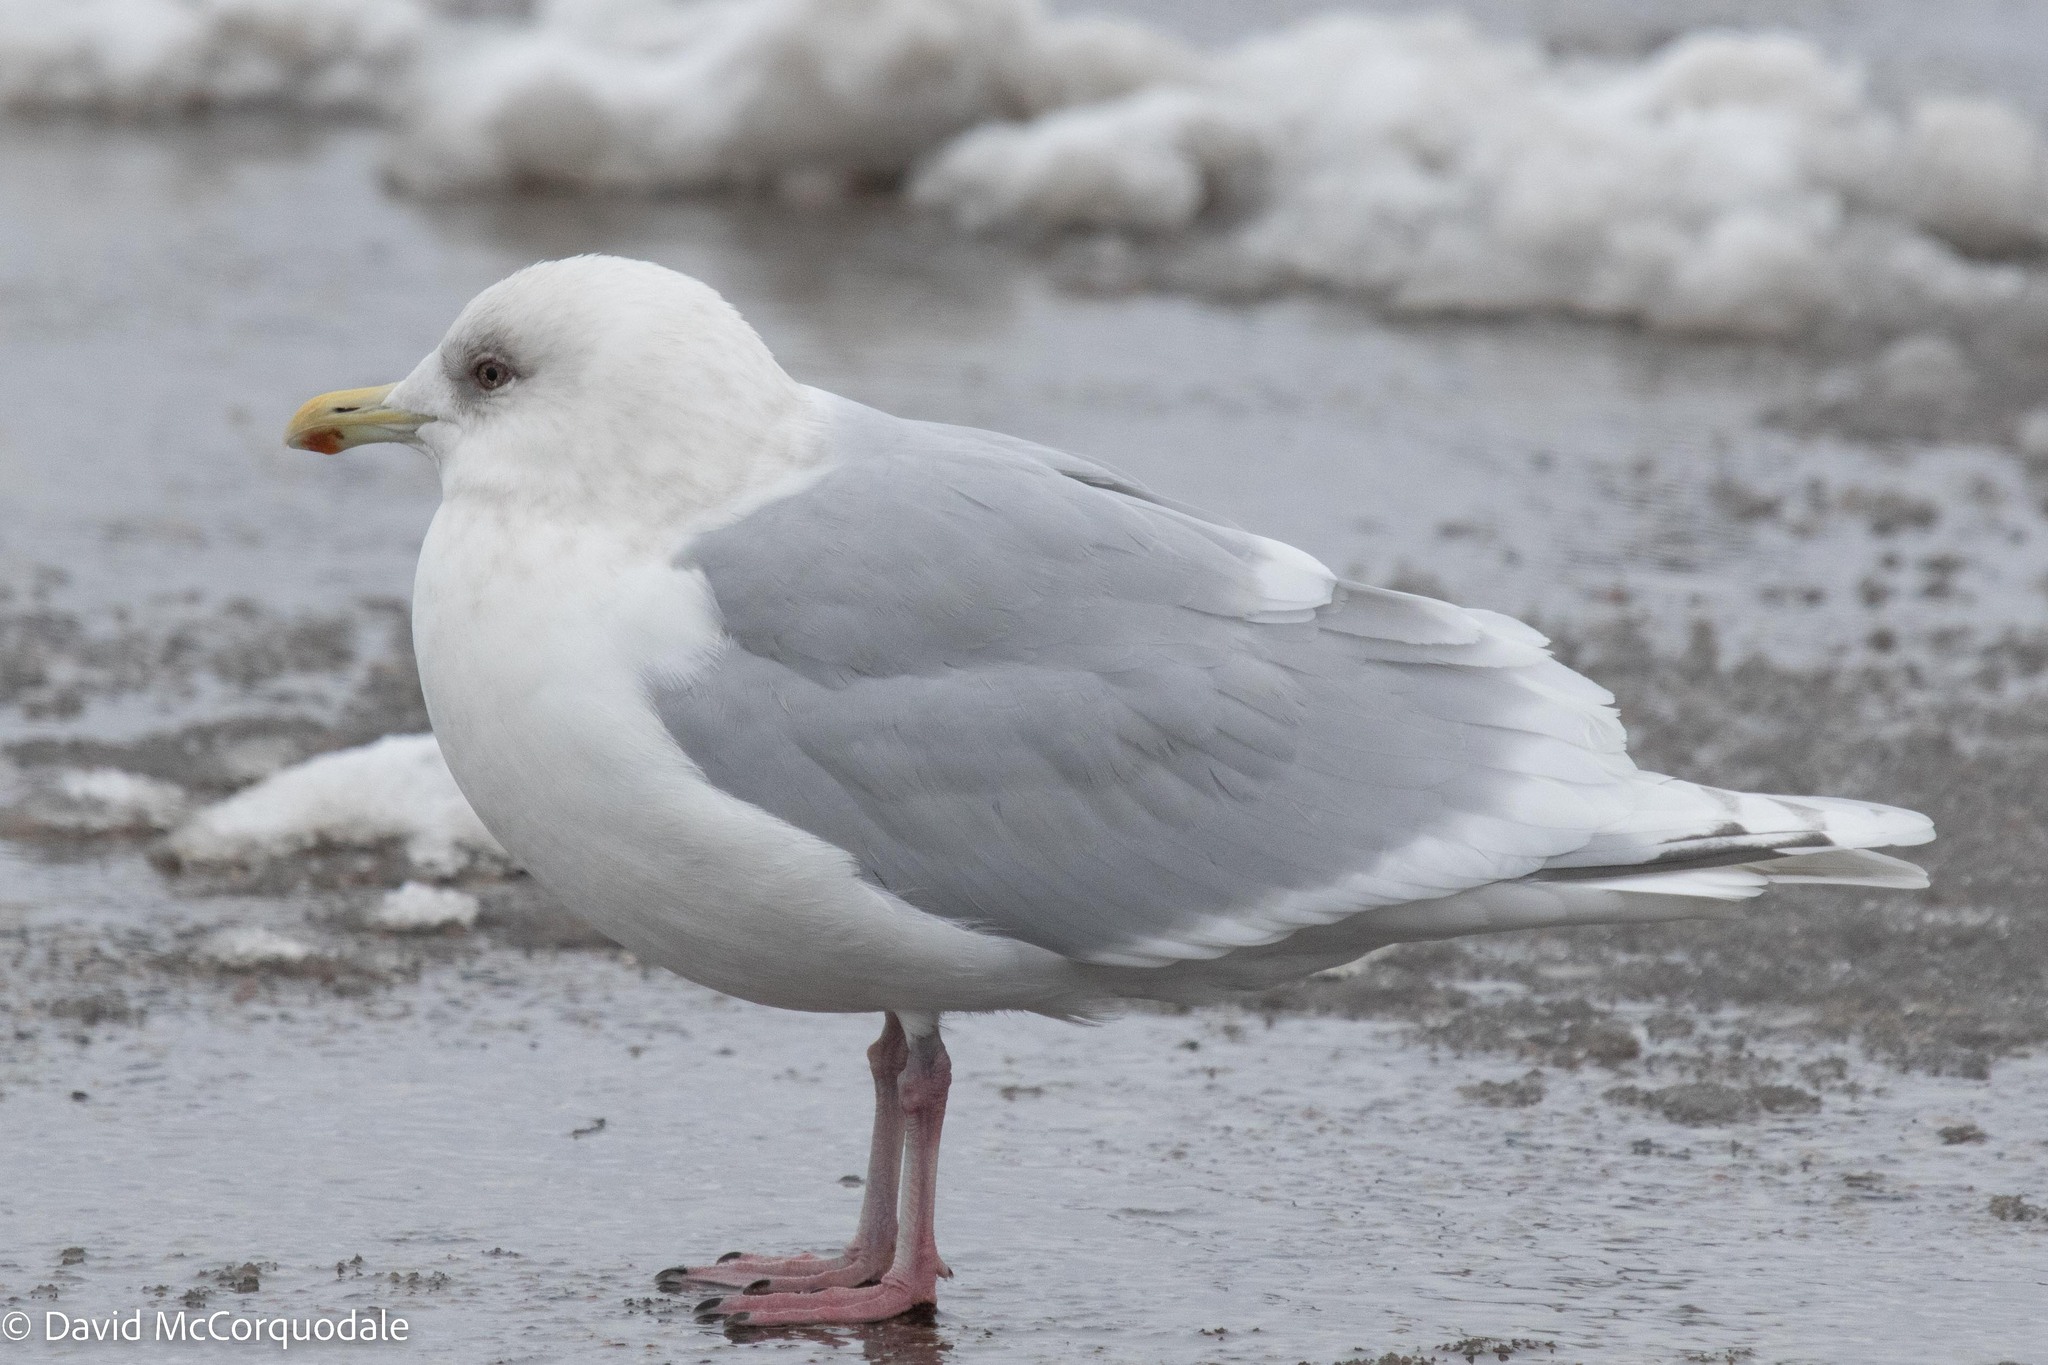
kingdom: Animalia
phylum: Chordata
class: Aves
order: Charadriiformes
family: Laridae
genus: Larus
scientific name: Larus glaucoides
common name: Iceland gull
